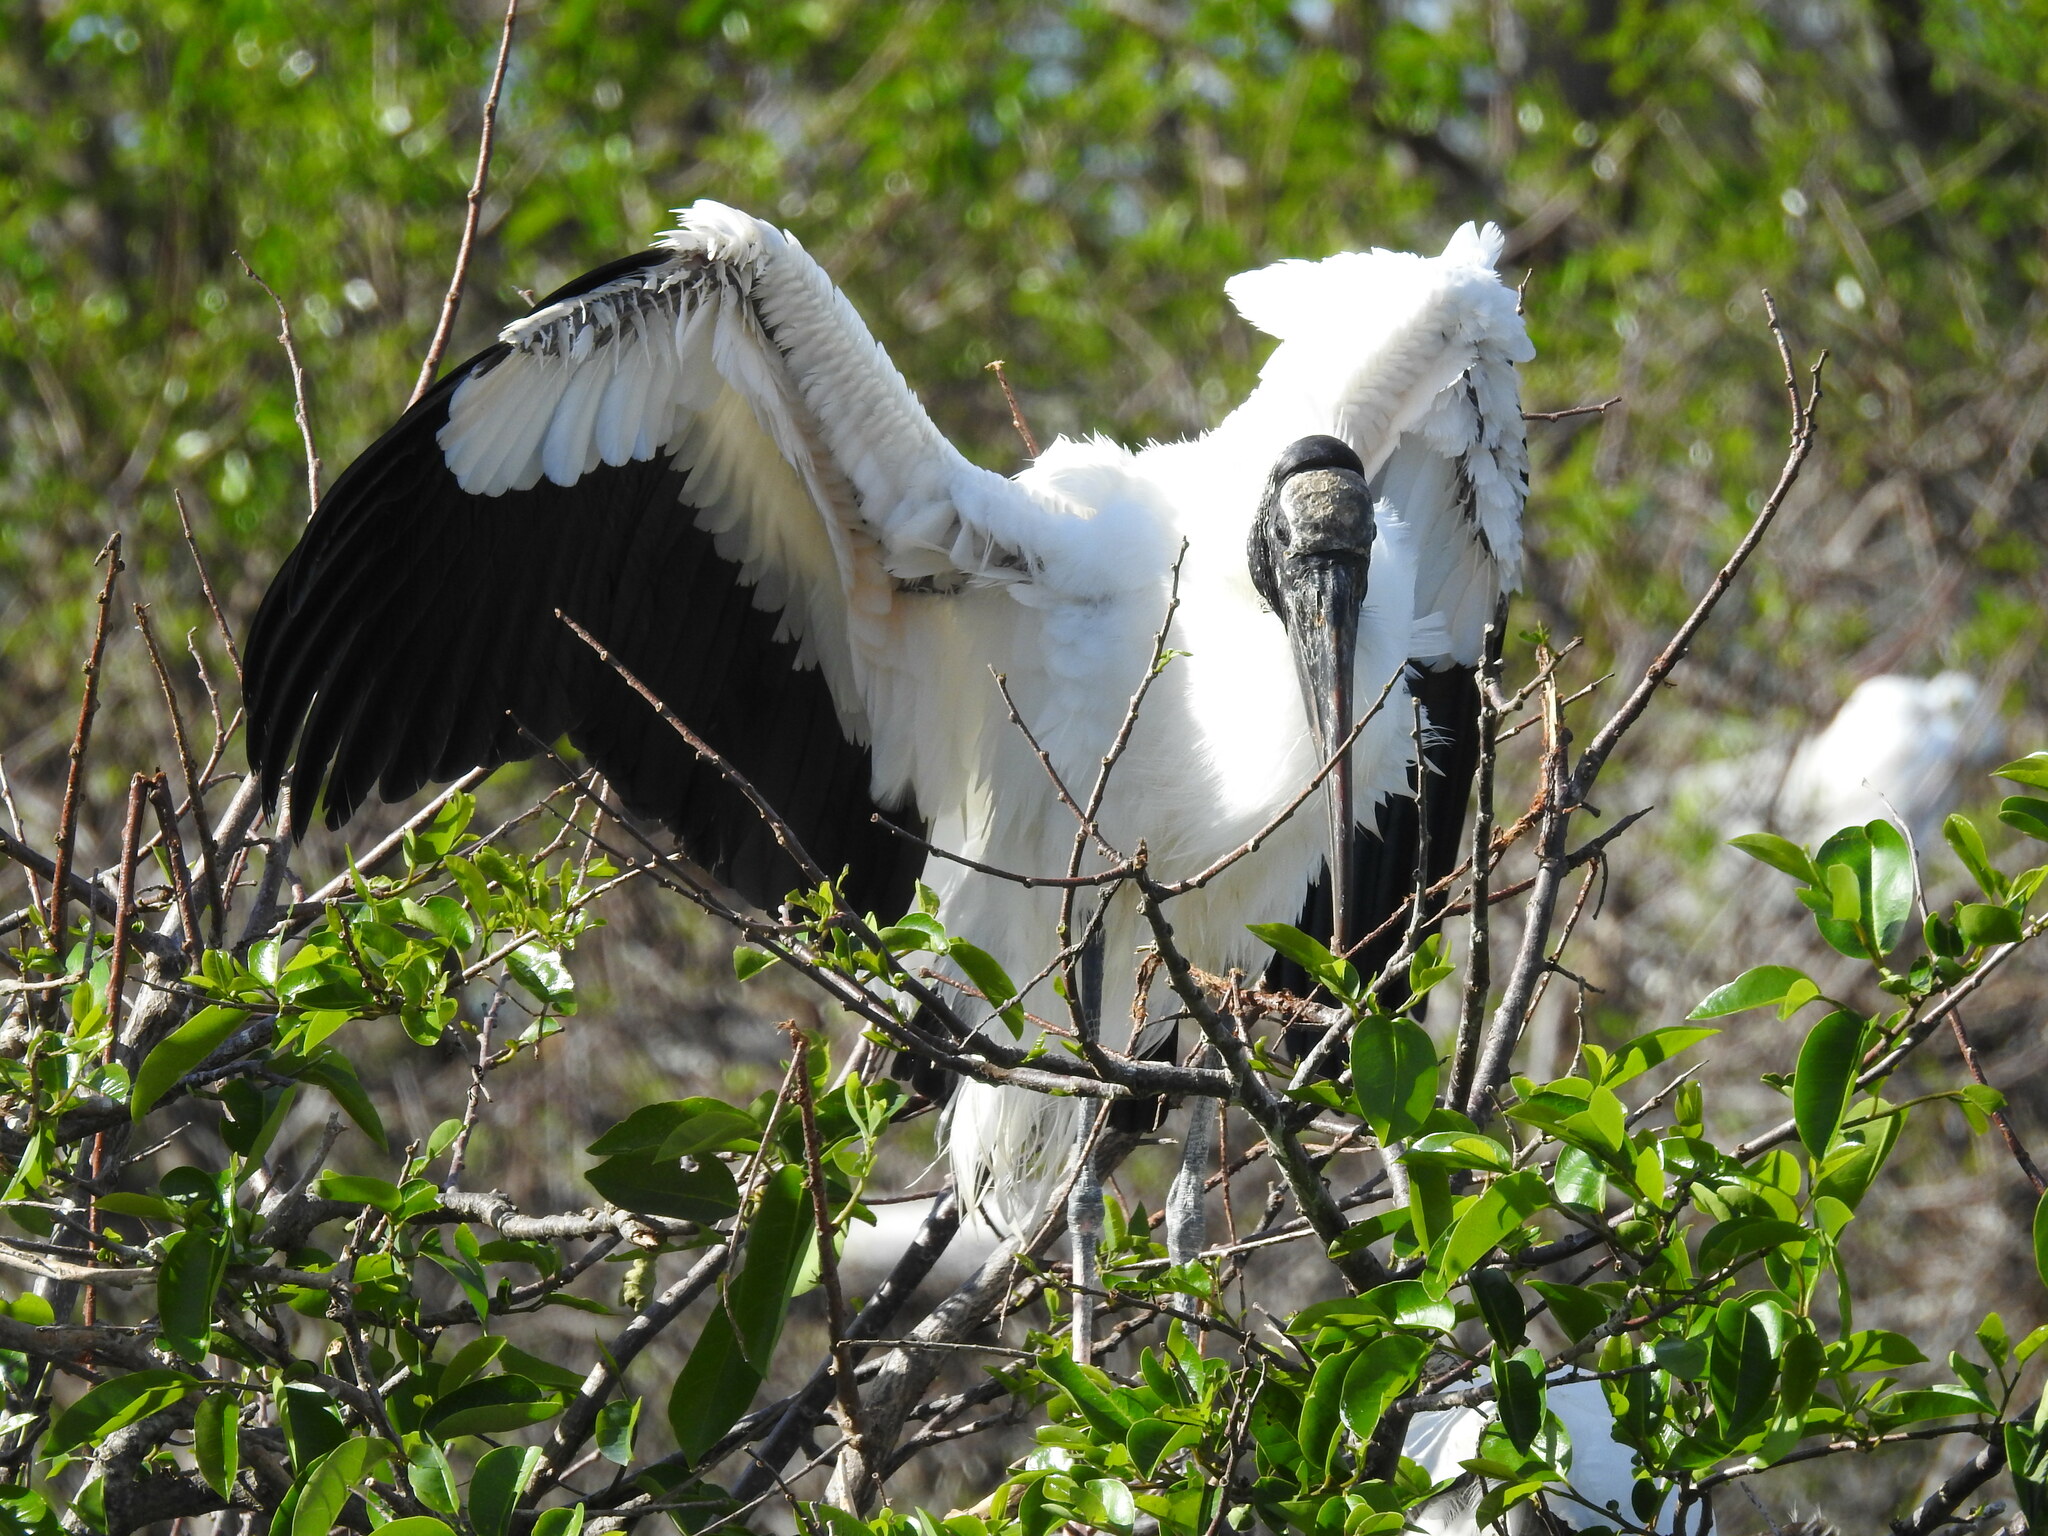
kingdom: Animalia
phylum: Chordata
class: Aves
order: Ciconiiformes
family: Ciconiidae
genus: Mycteria
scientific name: Mycteria americana
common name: Wood stork
